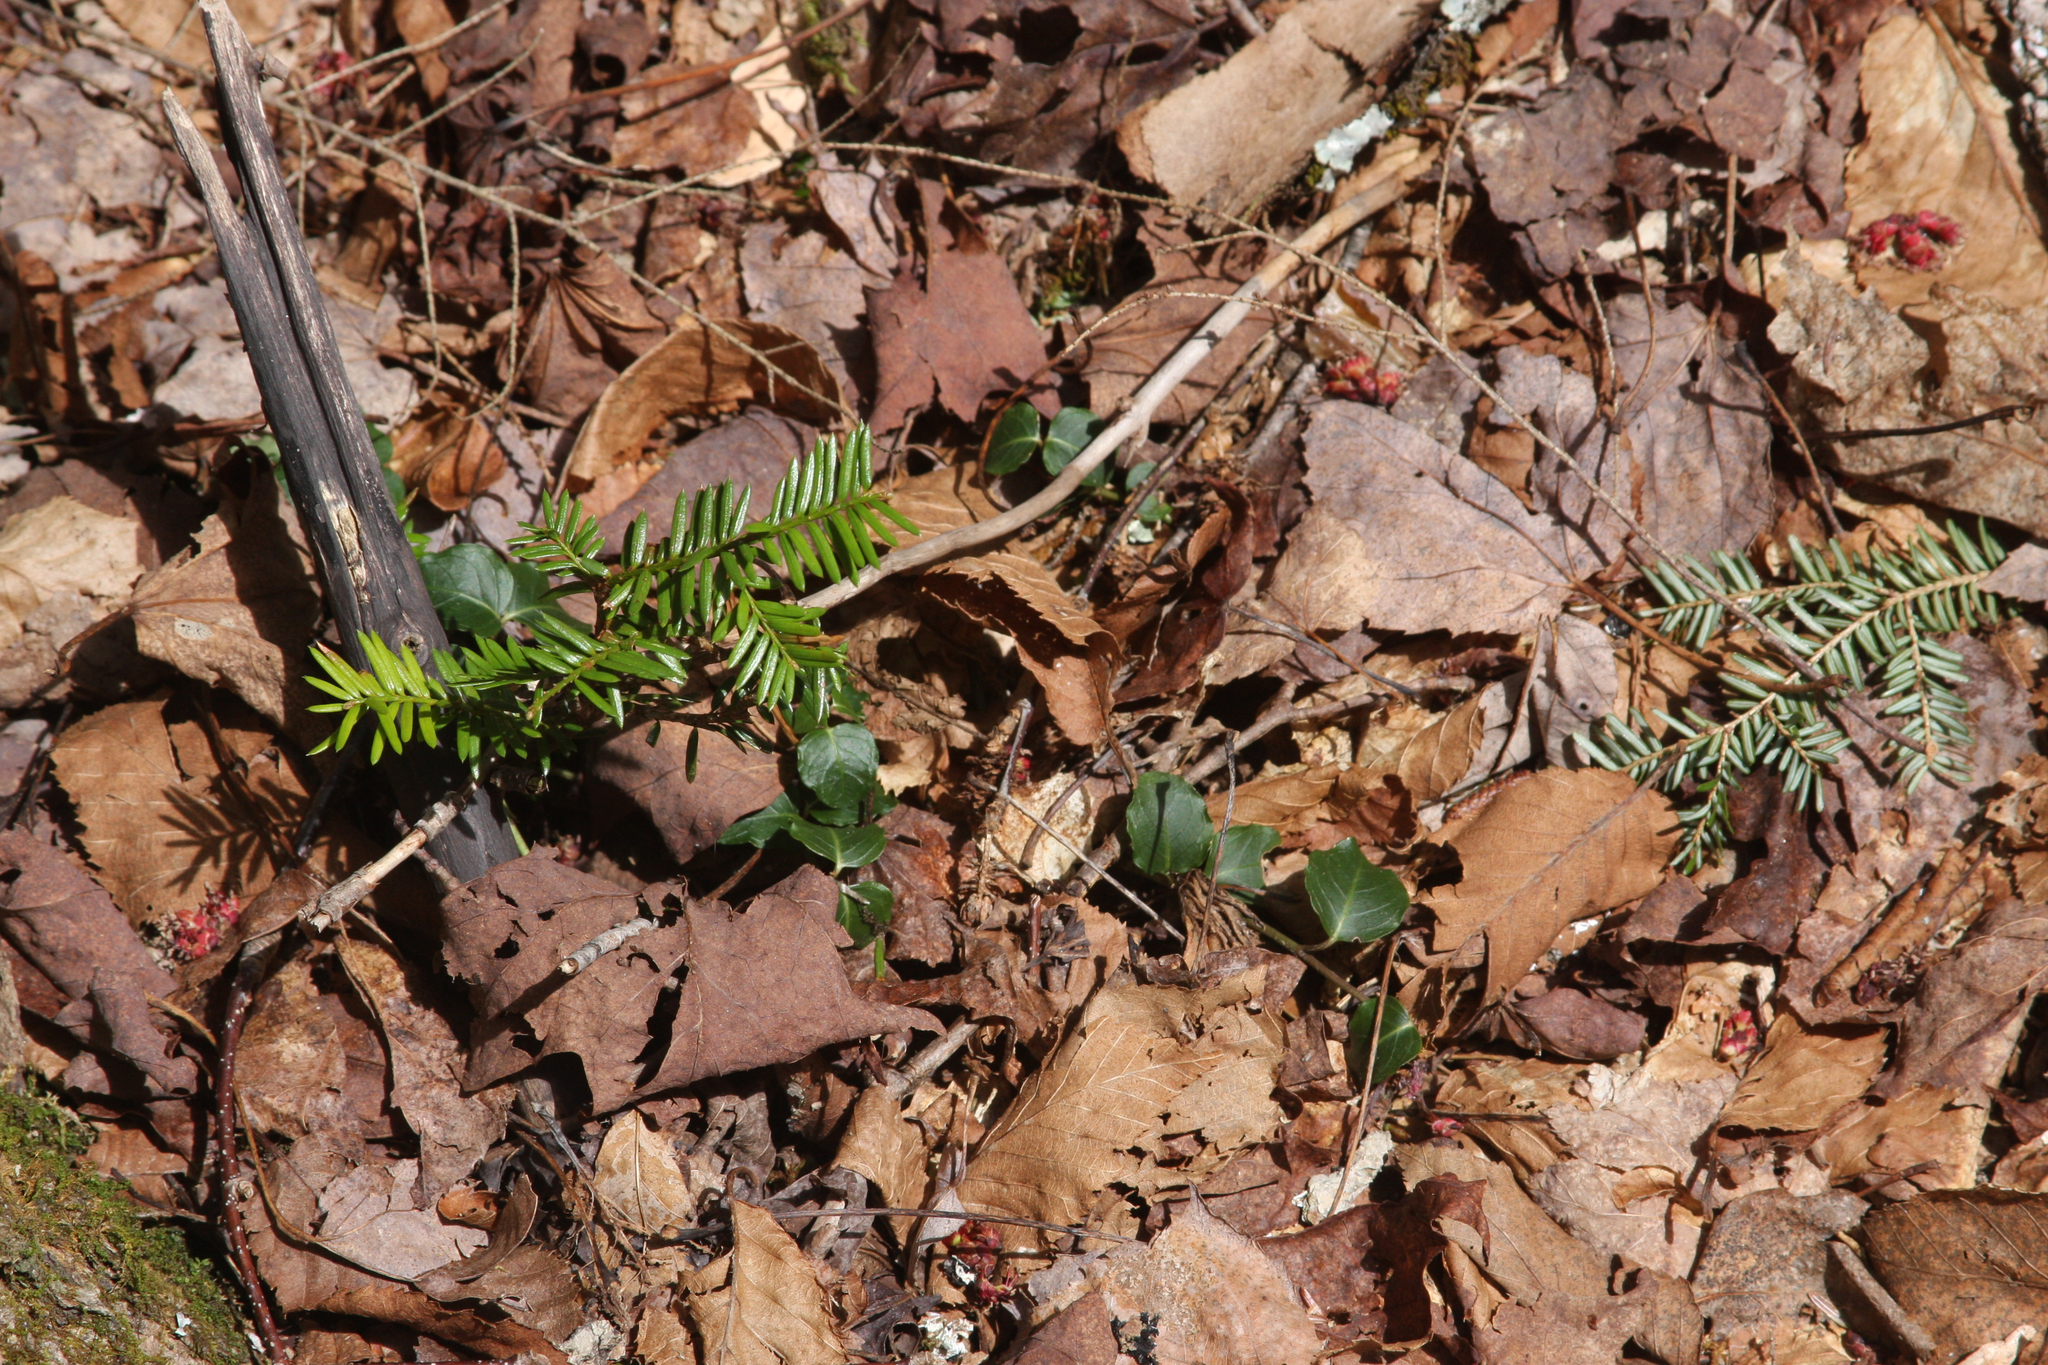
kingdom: Plantae
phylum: Tracheophyta
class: Pinopsida
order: Pinales
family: Pinaceae
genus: Tsuga
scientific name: Tsuga canadensis
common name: Eastern hemlock
